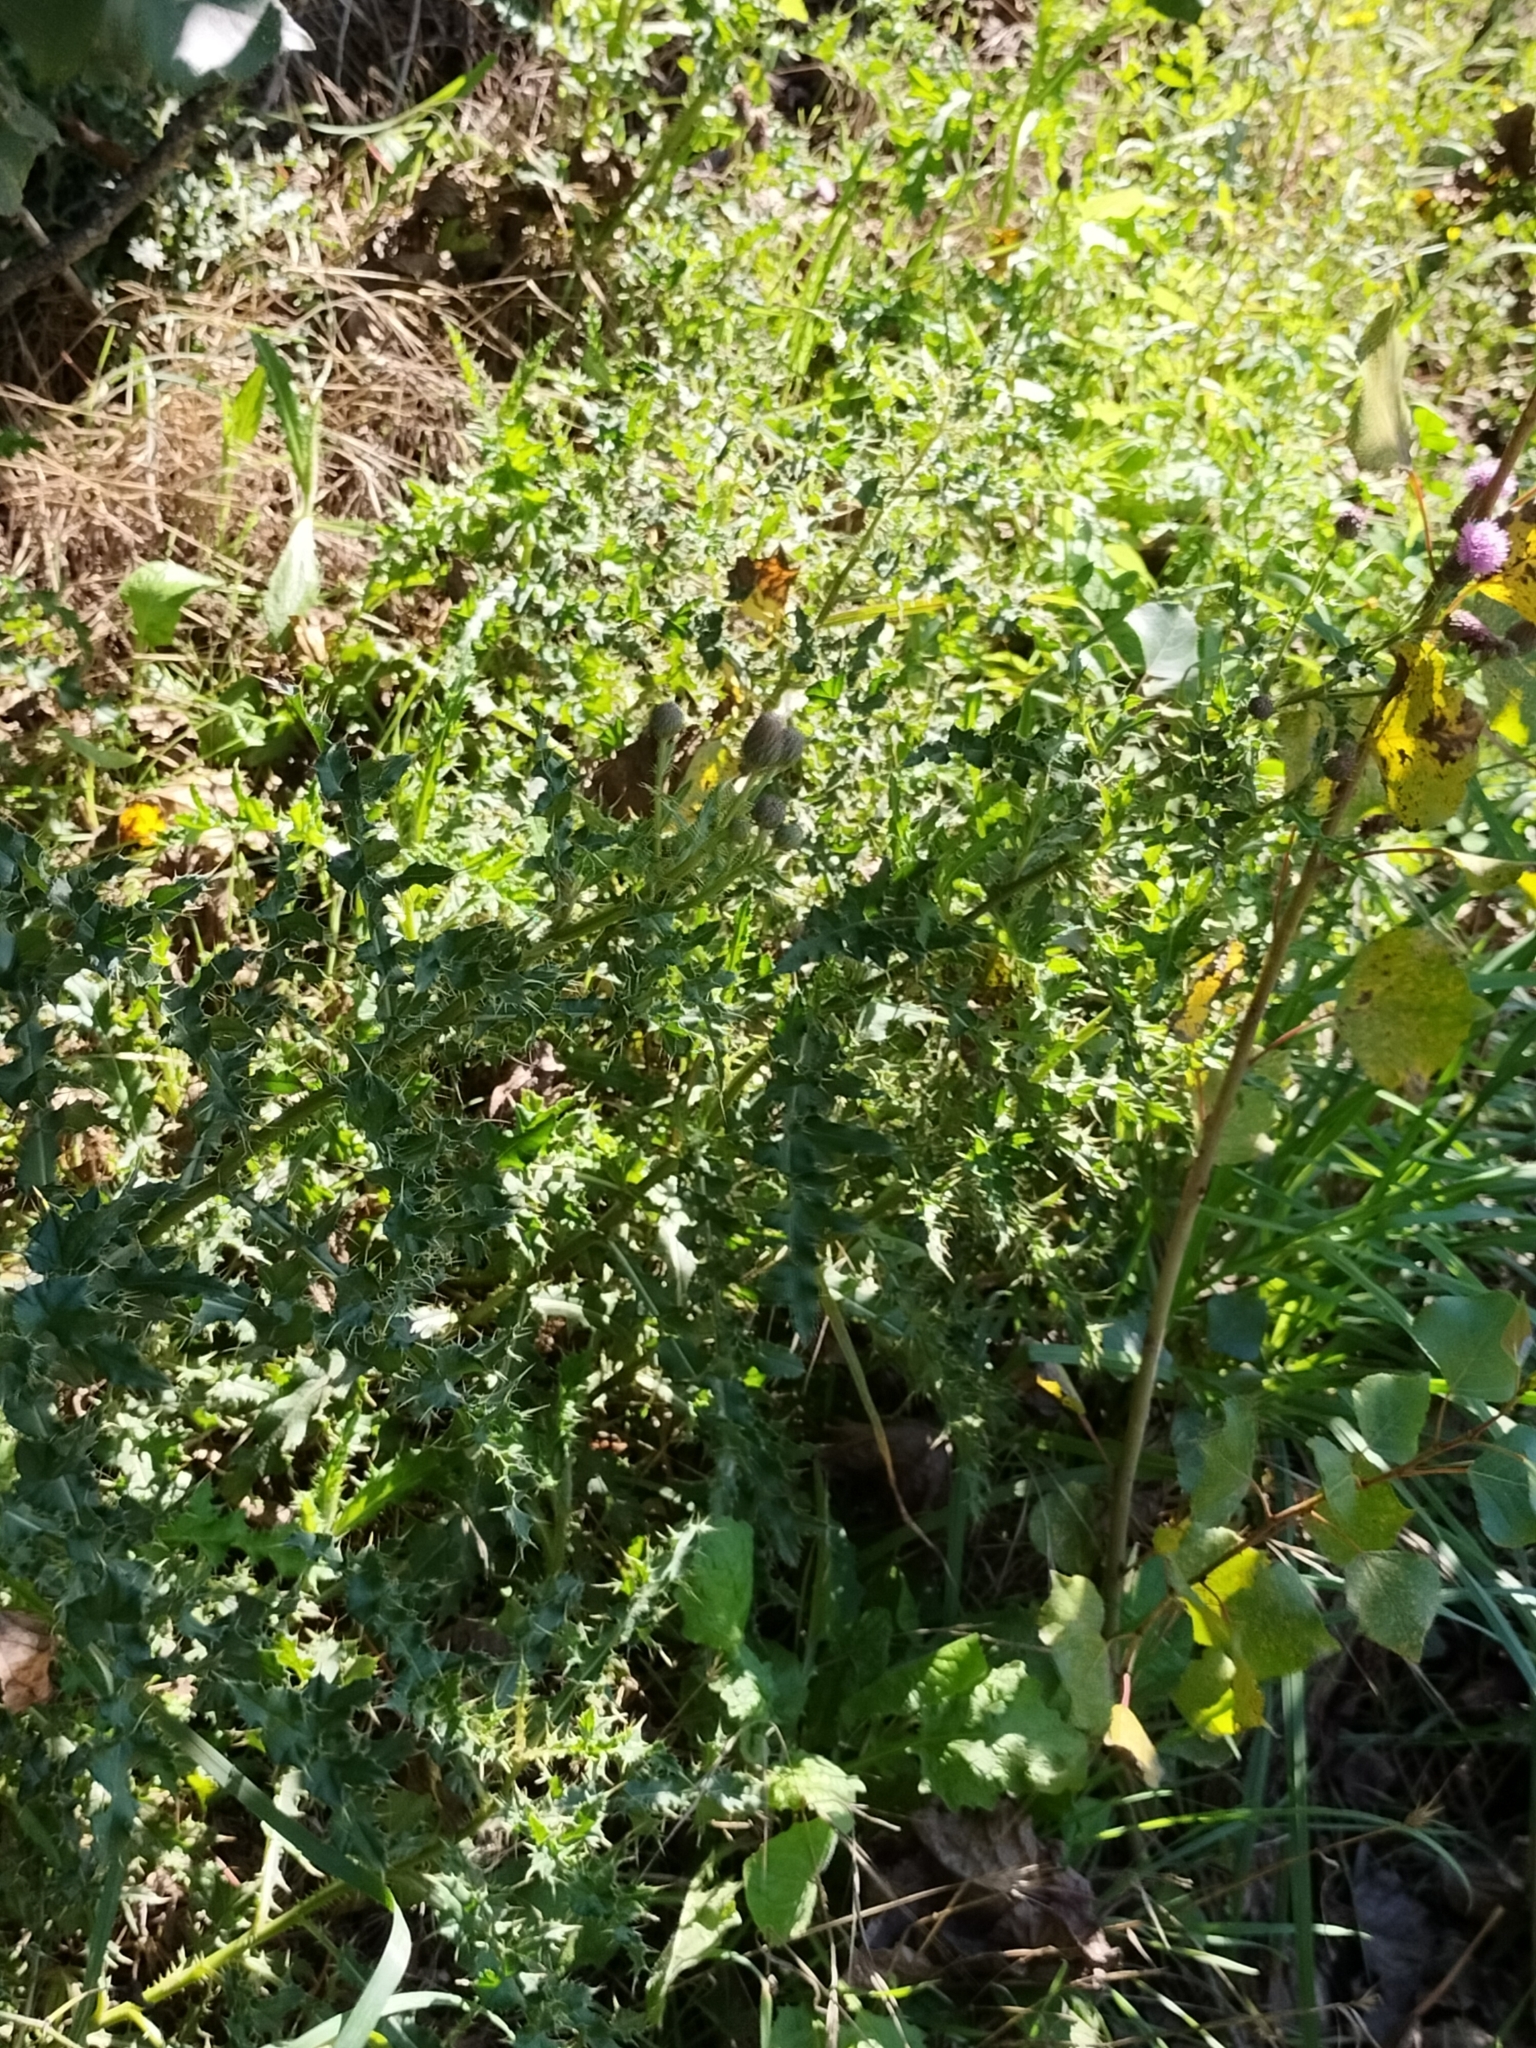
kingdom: Plantae
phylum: Tracheophyta
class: Magnoliopsida
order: Asterales
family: Asteraceae
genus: Cirsium
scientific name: Cirsium arvense
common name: Creeping thistle
